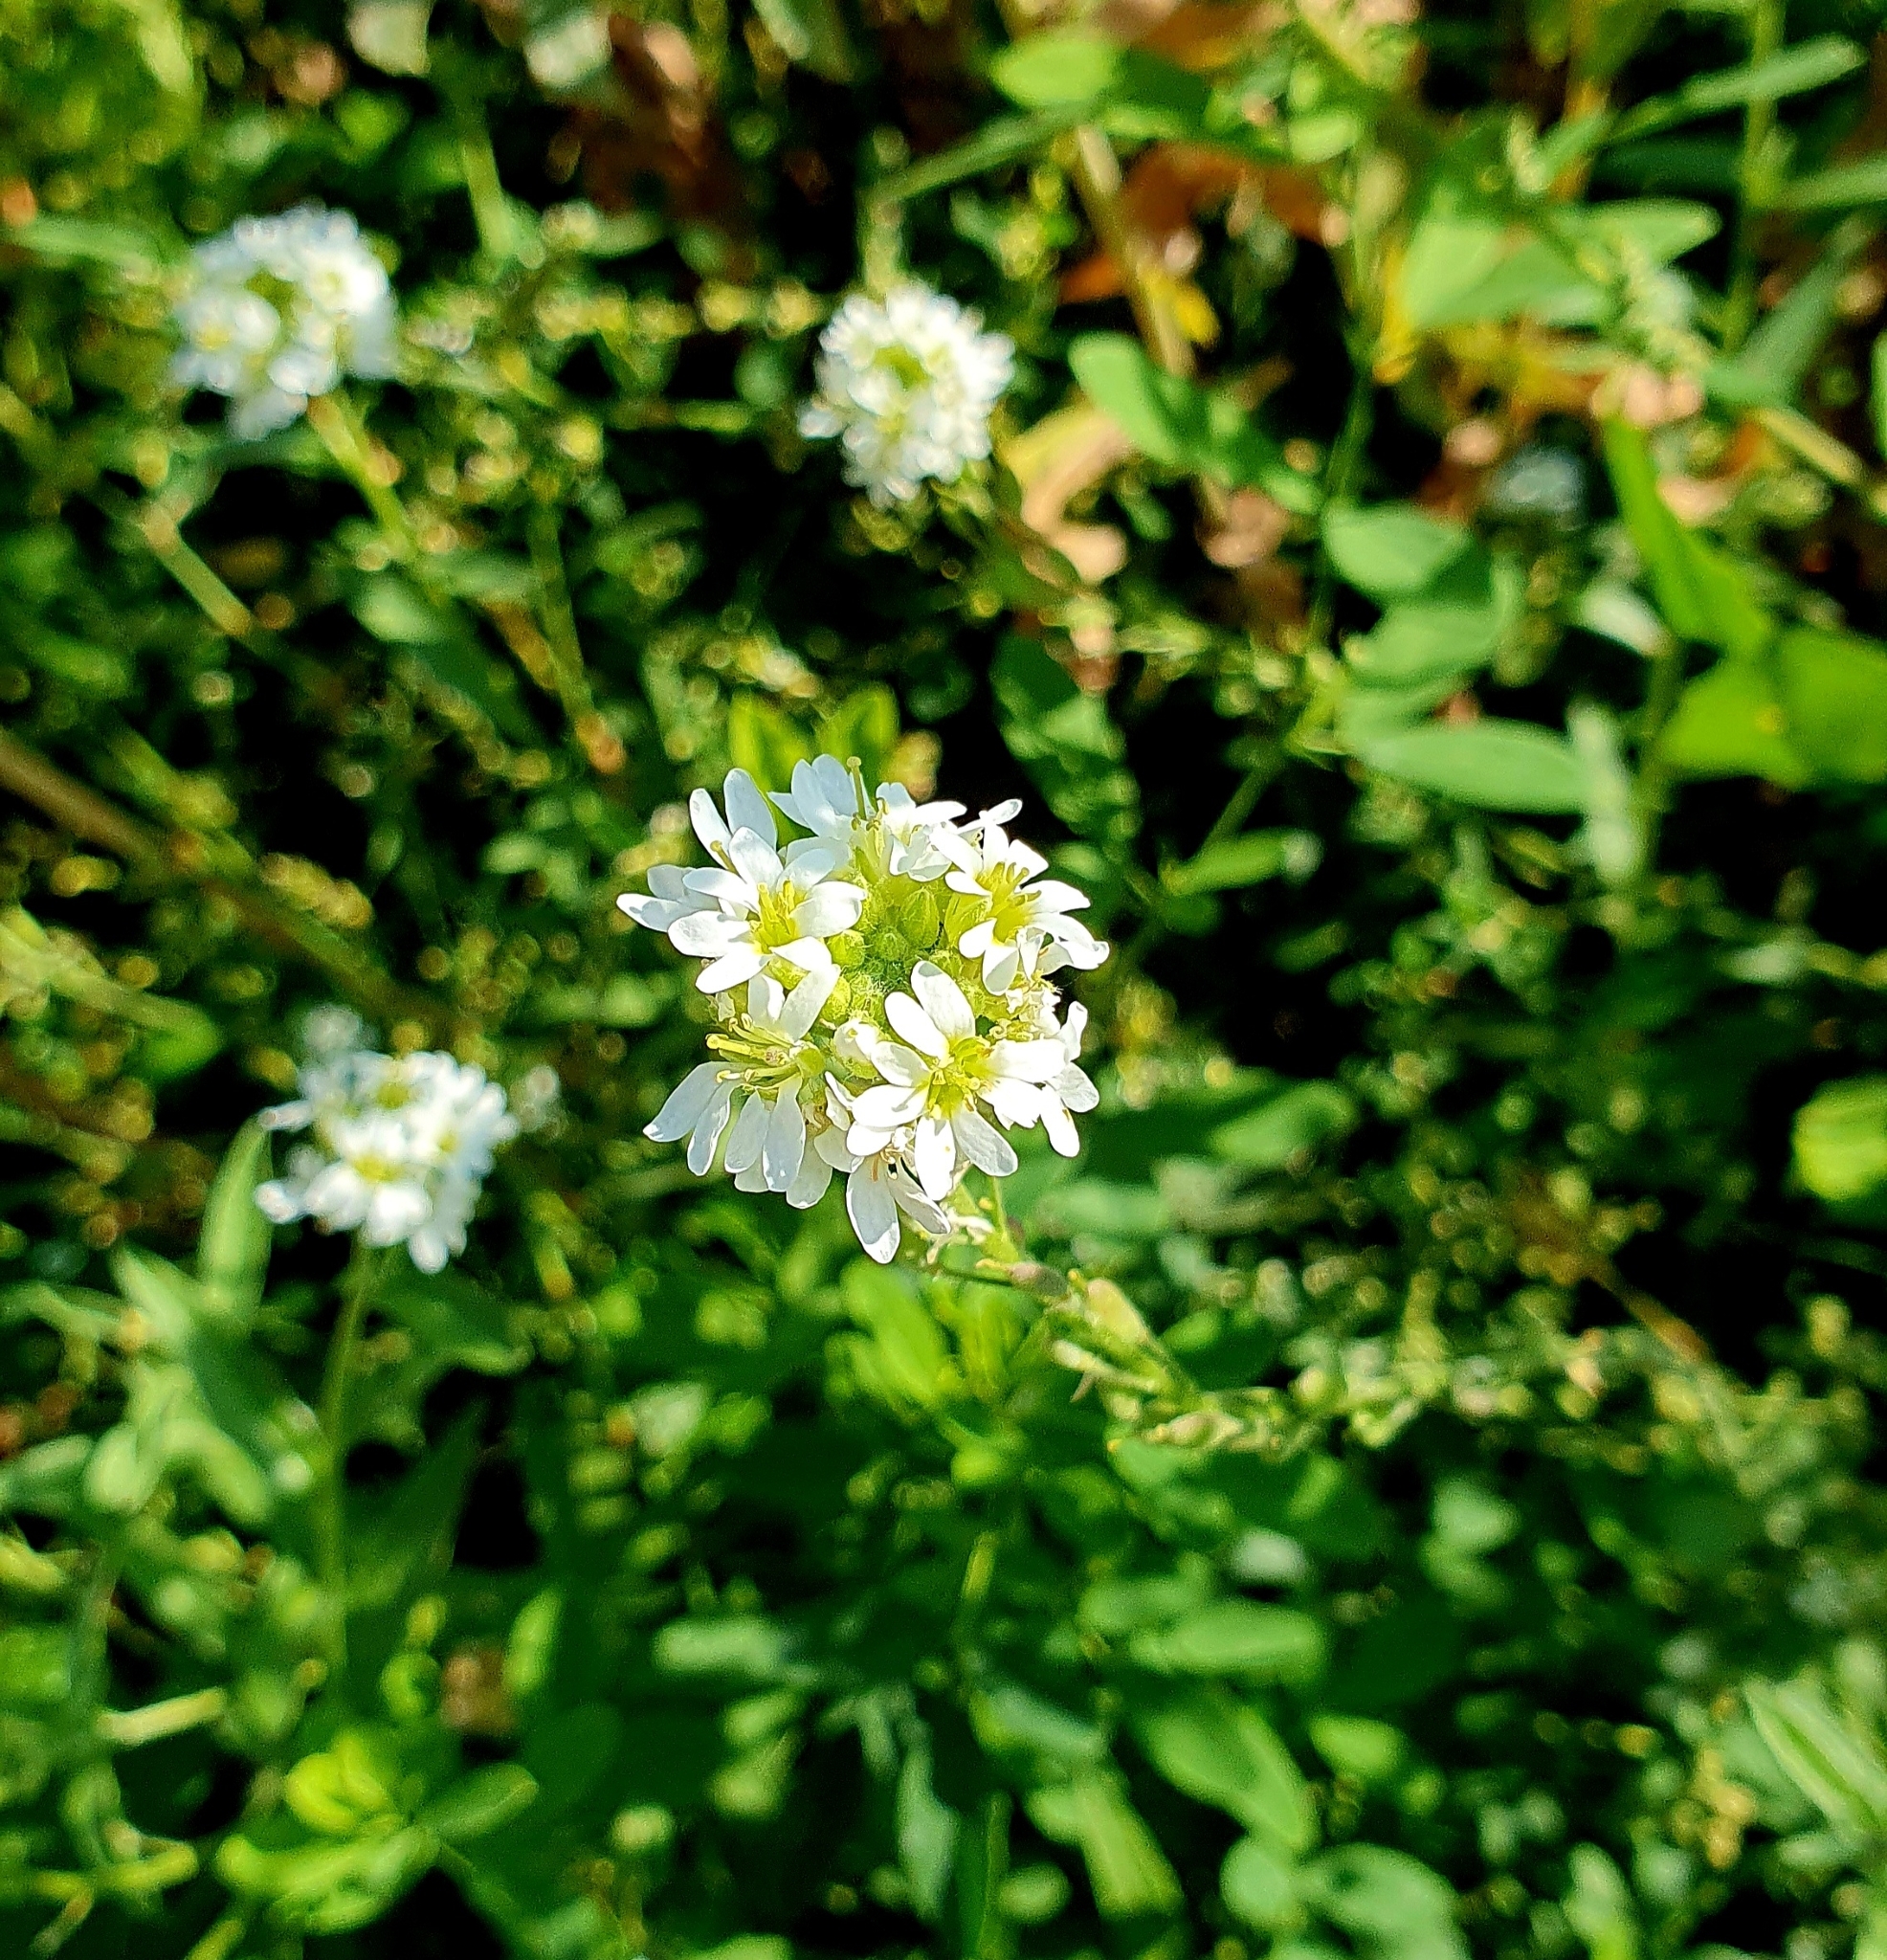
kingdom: Plantae
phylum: Tracheophyta
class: Magnoliopsida
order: Brassicales
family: Brassicaceae
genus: Berteroa
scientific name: Berteroa incana
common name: Hoary alison
